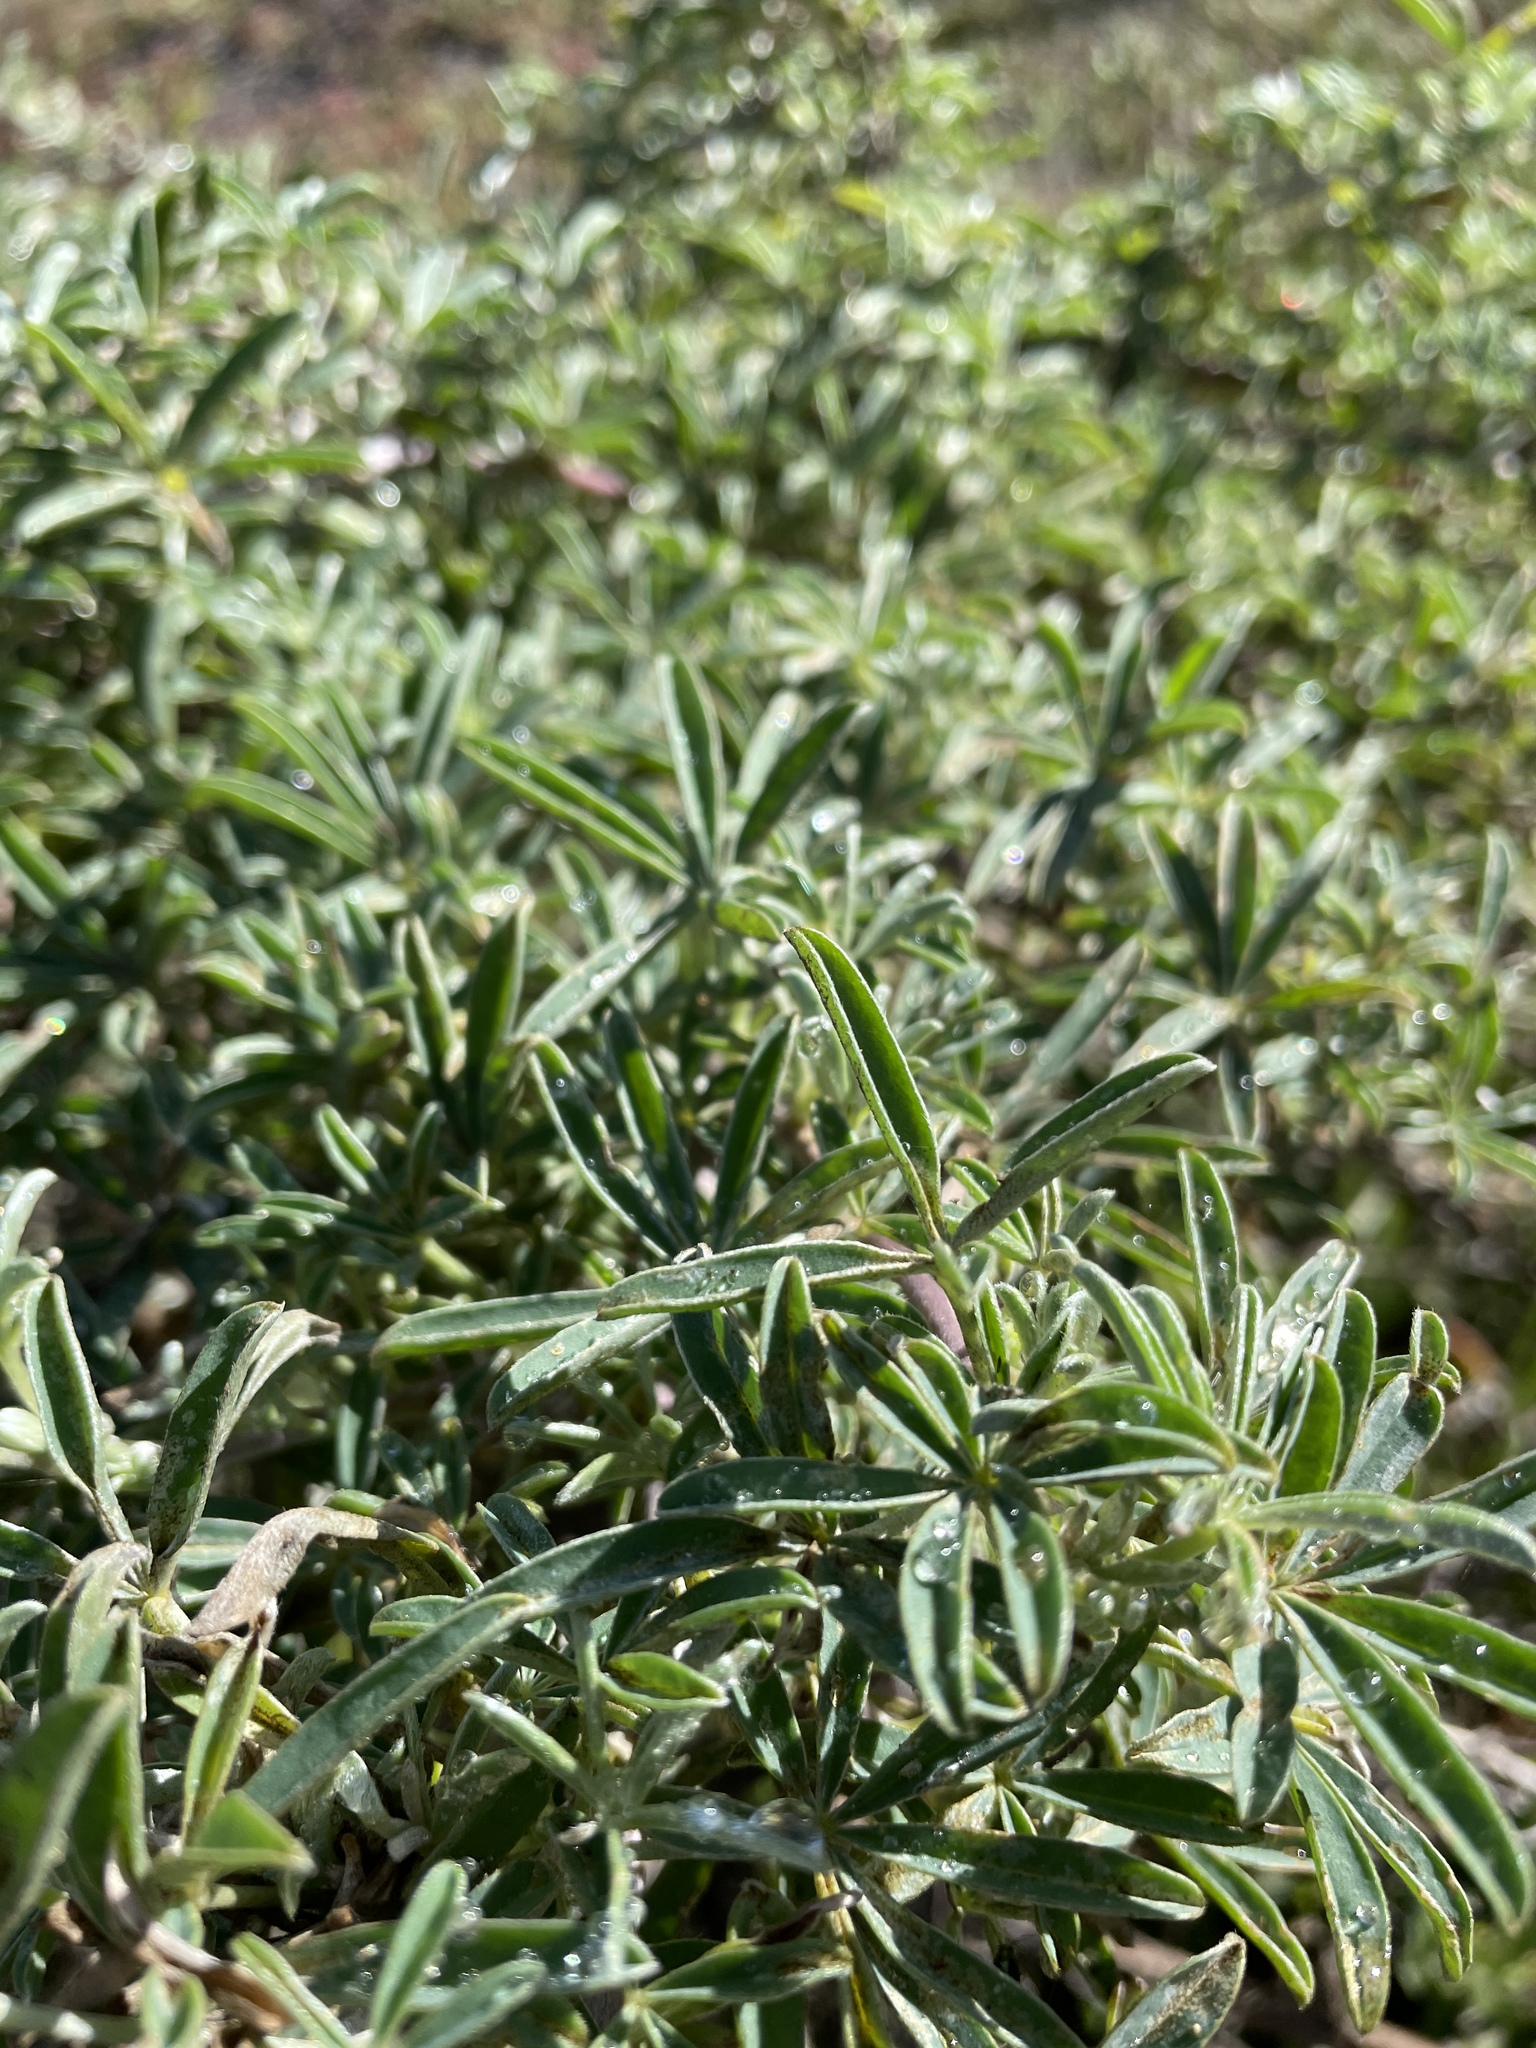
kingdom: Plantae
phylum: Tracheophyta
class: Magnoliopsida
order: Fabales
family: Fabaceae
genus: Lupinus
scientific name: Lupinus arboreus
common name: Yellow bush lupine
